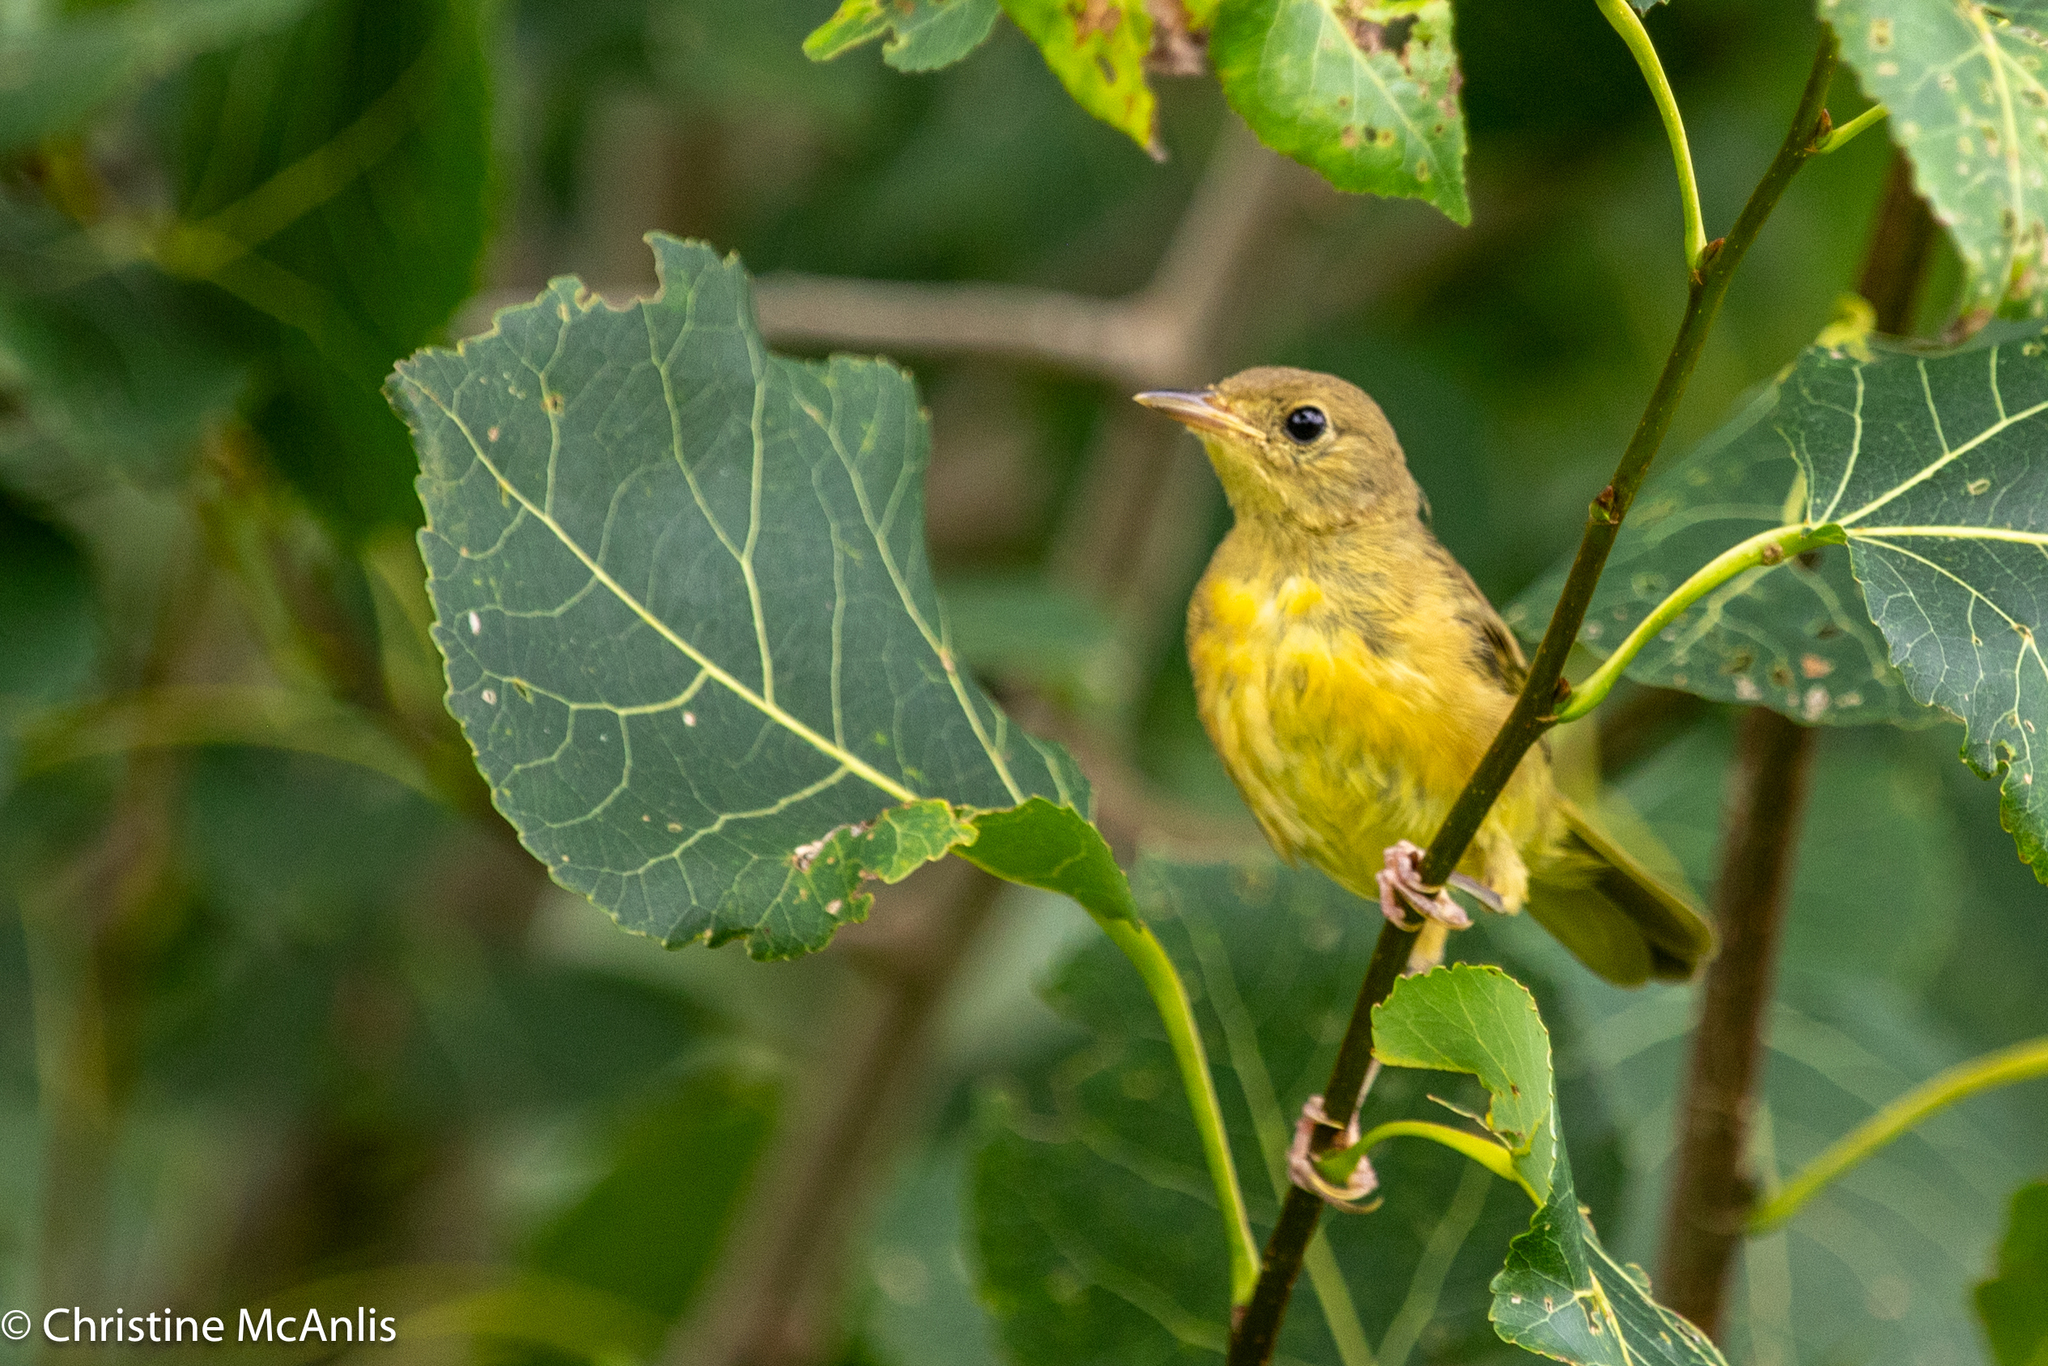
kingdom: Animalia
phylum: Chordata
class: Aves
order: Passeriformes
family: Parulidae
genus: Geothlypis
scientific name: Geothlypis trichas
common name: Common yellowthroat
